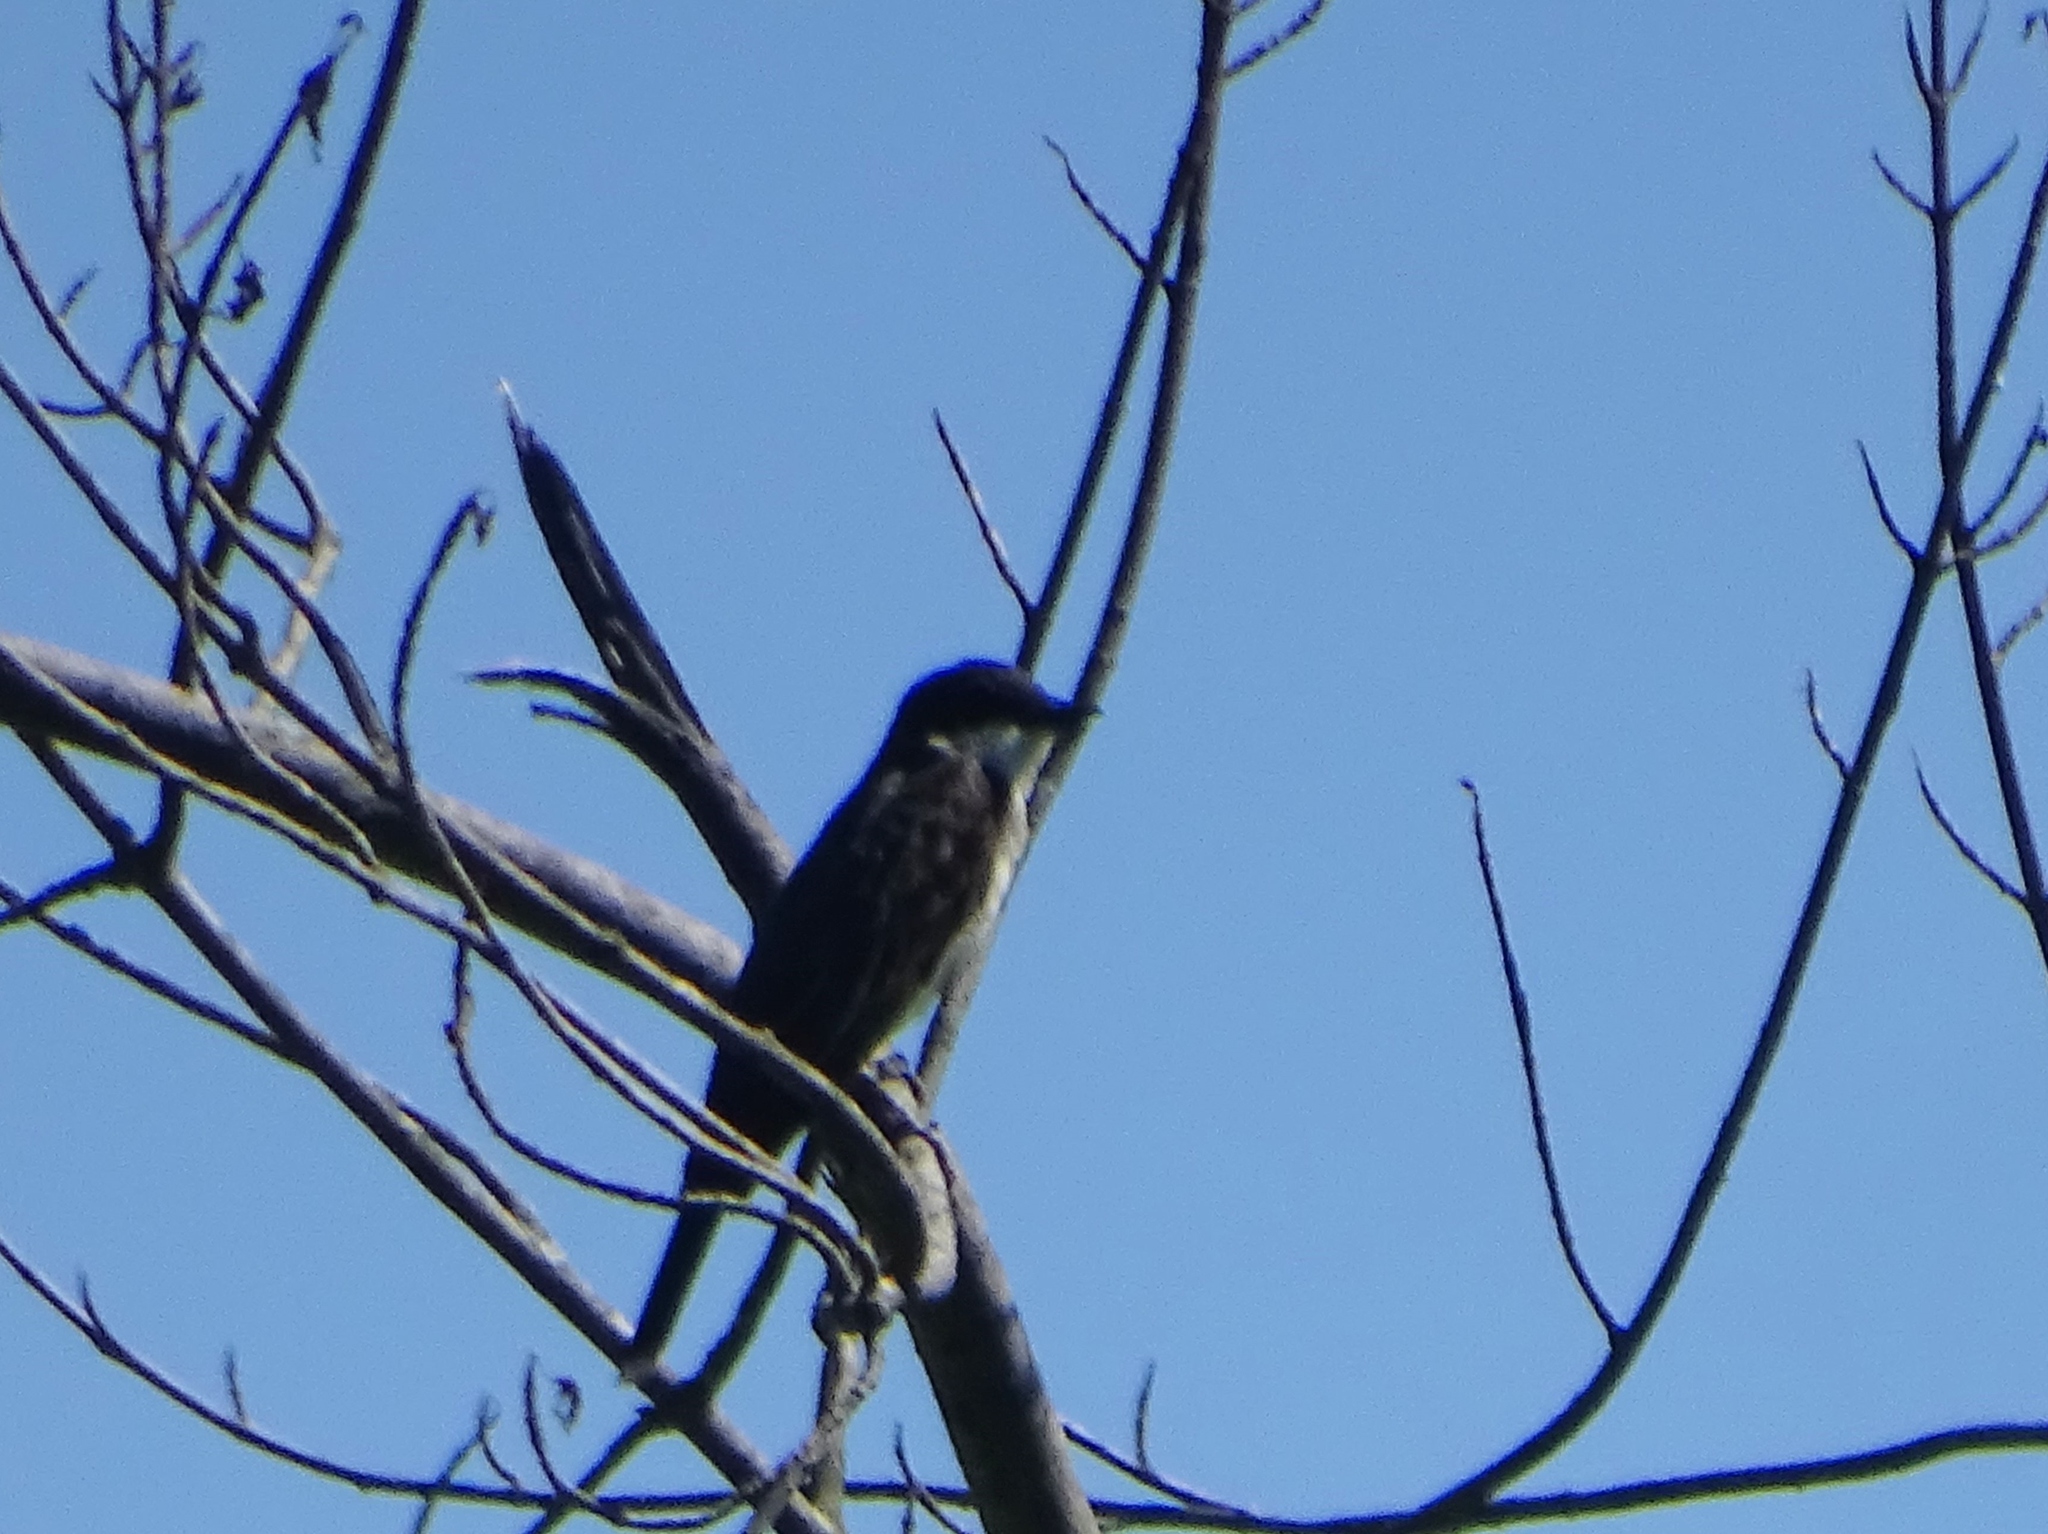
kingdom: Animalia
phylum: Chordata
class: Aves
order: Passeriformes
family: Tyrannidae
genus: Tyrannus
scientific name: Tyrannus tyrannus
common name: Eastern kingbird
